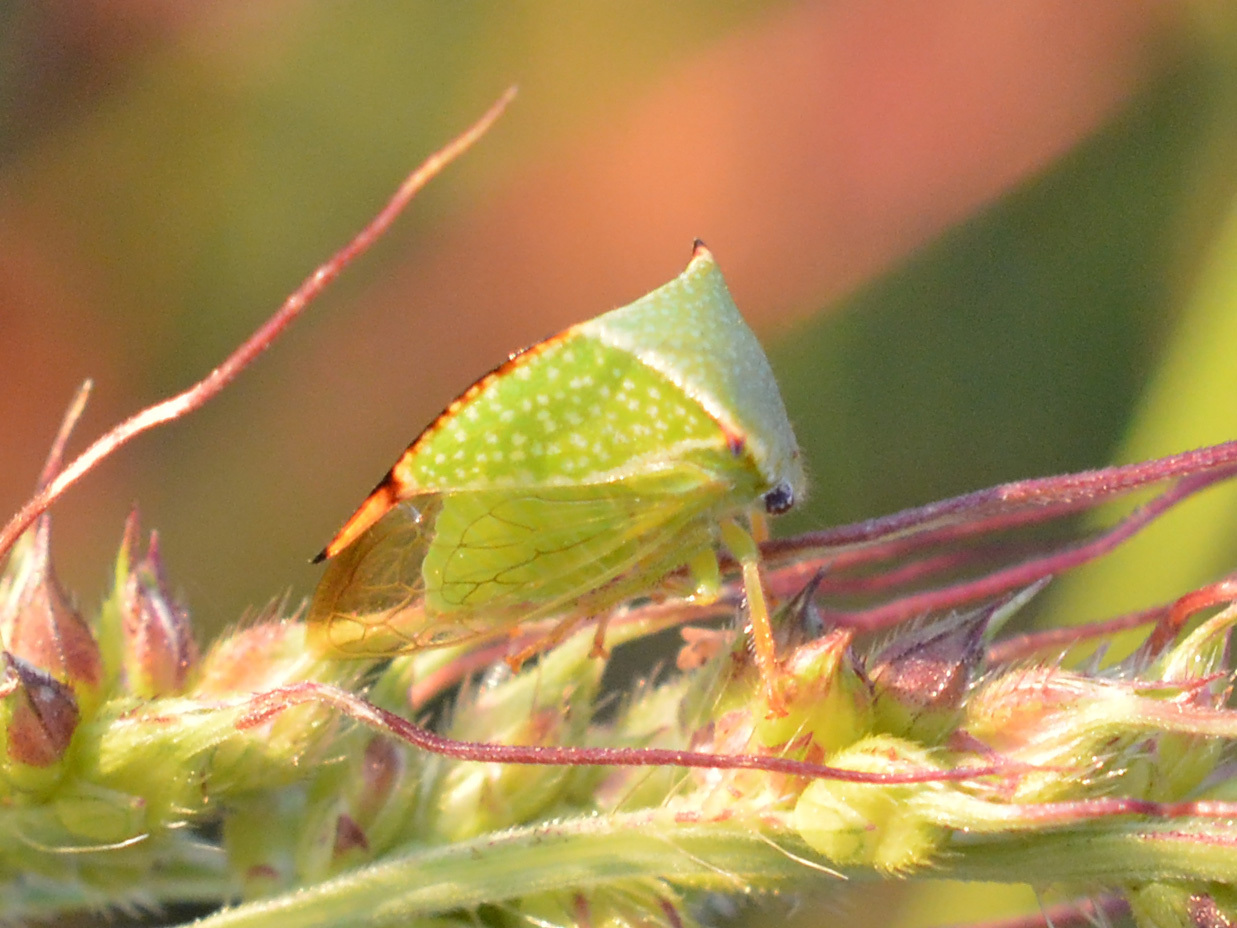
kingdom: Animalia
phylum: Arthropoda
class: Insecta
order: Hemiptera
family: Membracidae
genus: Stictocephala
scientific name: Stictocephala bisonia
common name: American buffalo treehopper
